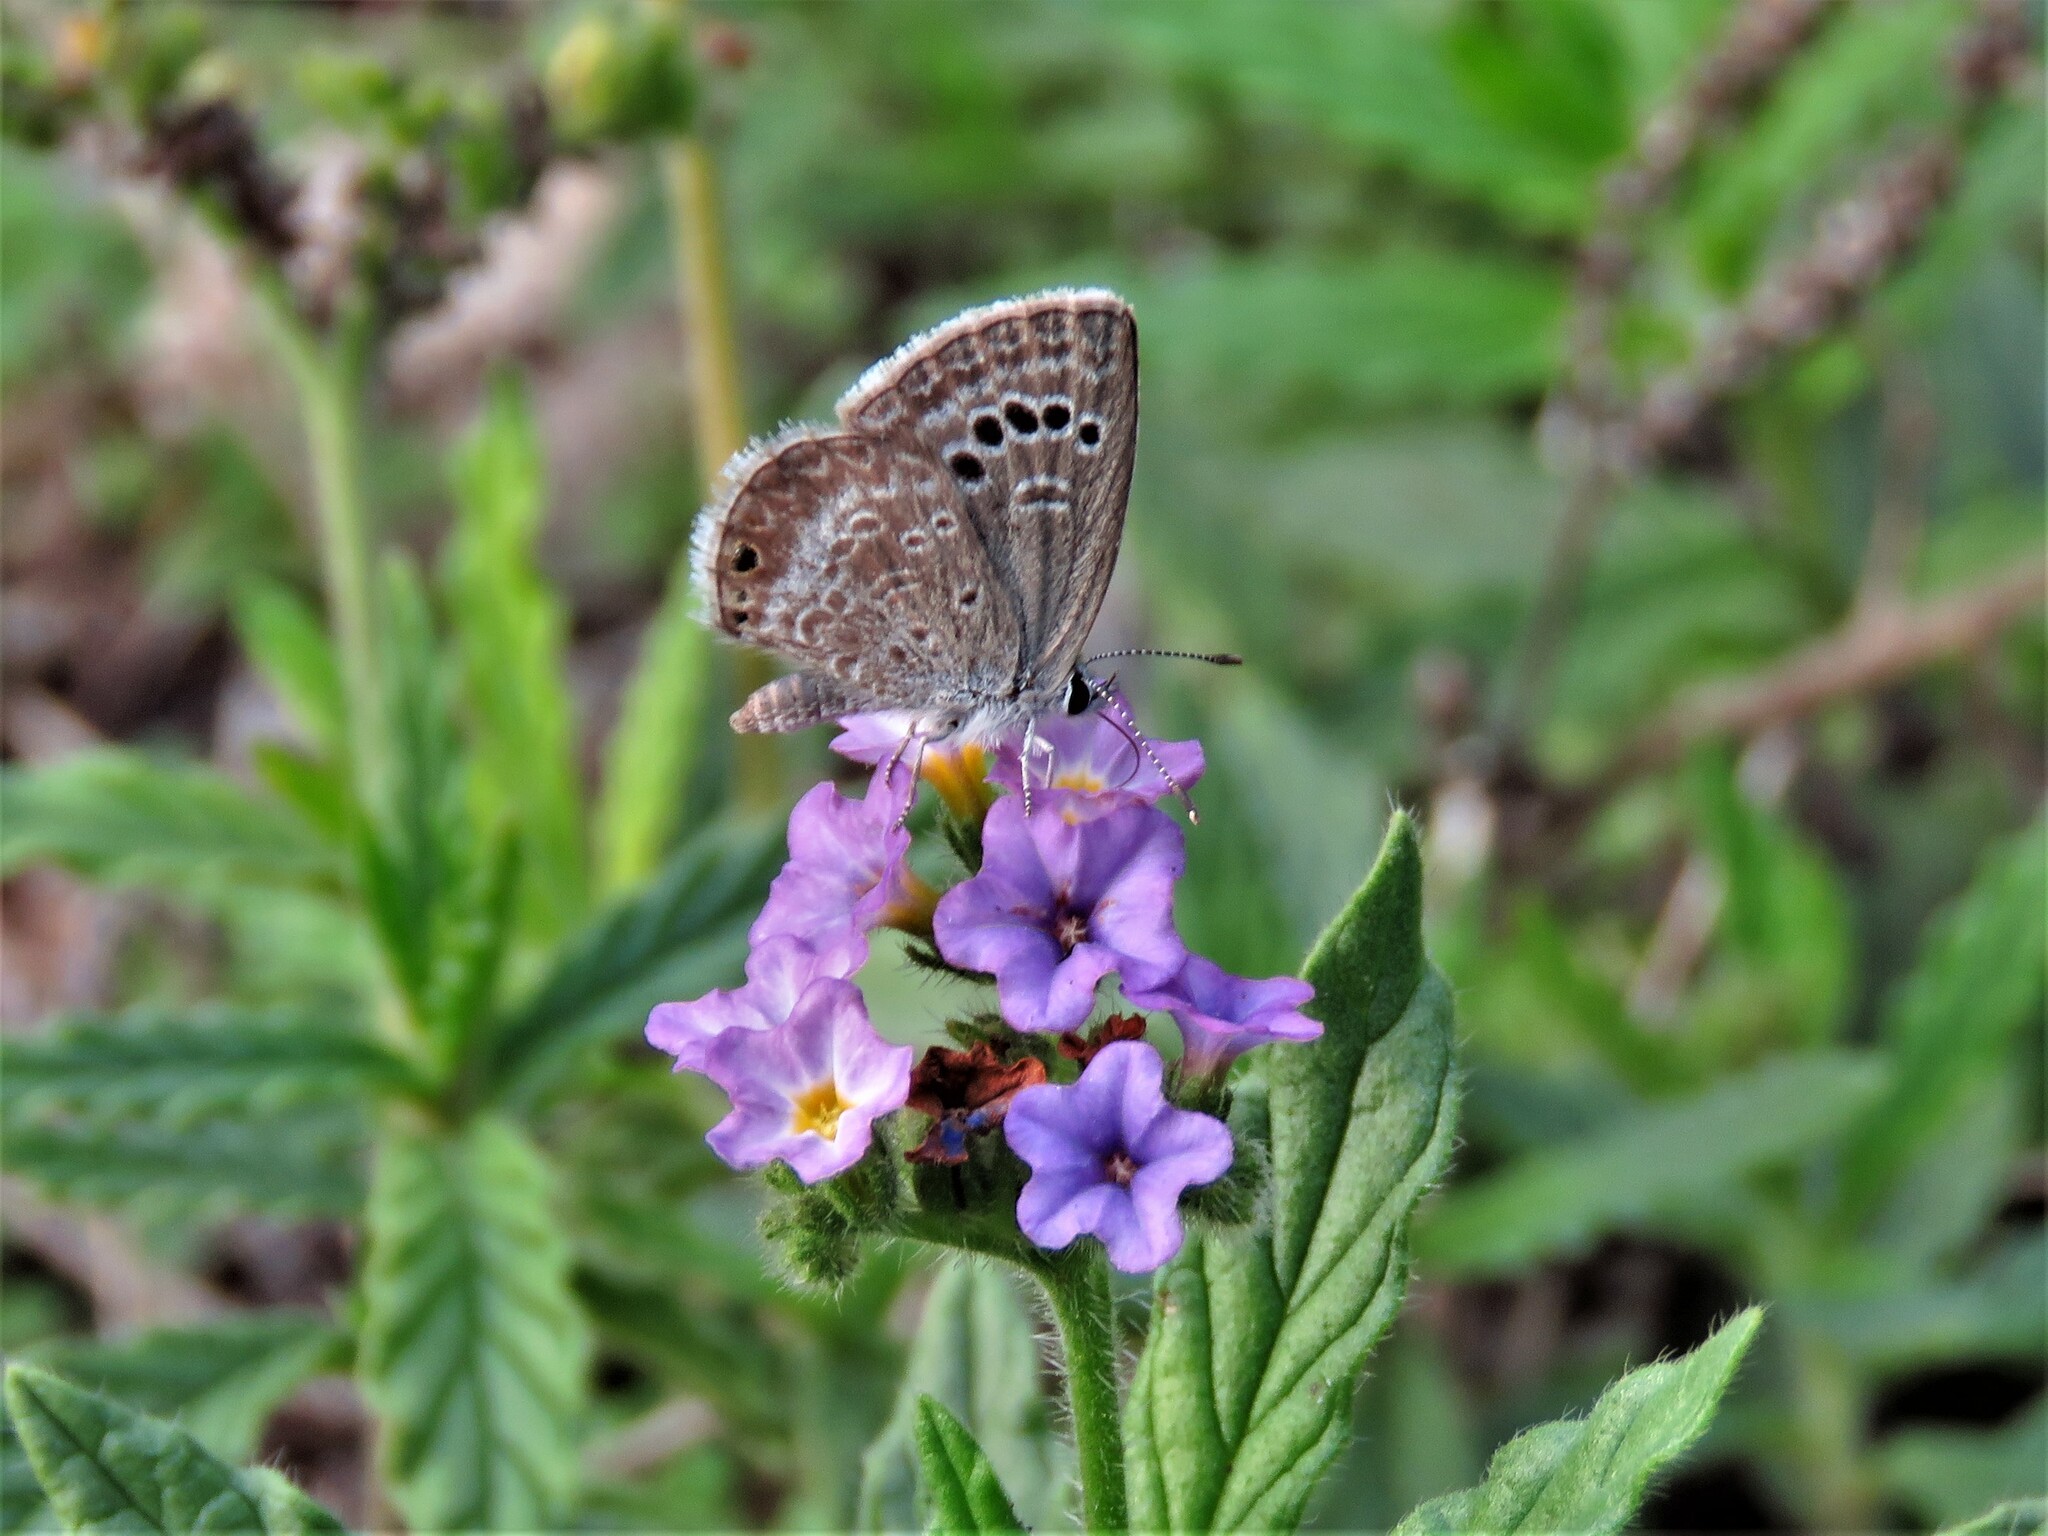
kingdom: Animalia
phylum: Arthropoda
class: Insecta
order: Lepidoptera
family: Lycaenidae
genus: Echinargus
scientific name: Echinargus isola
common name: Reakirt's blue
